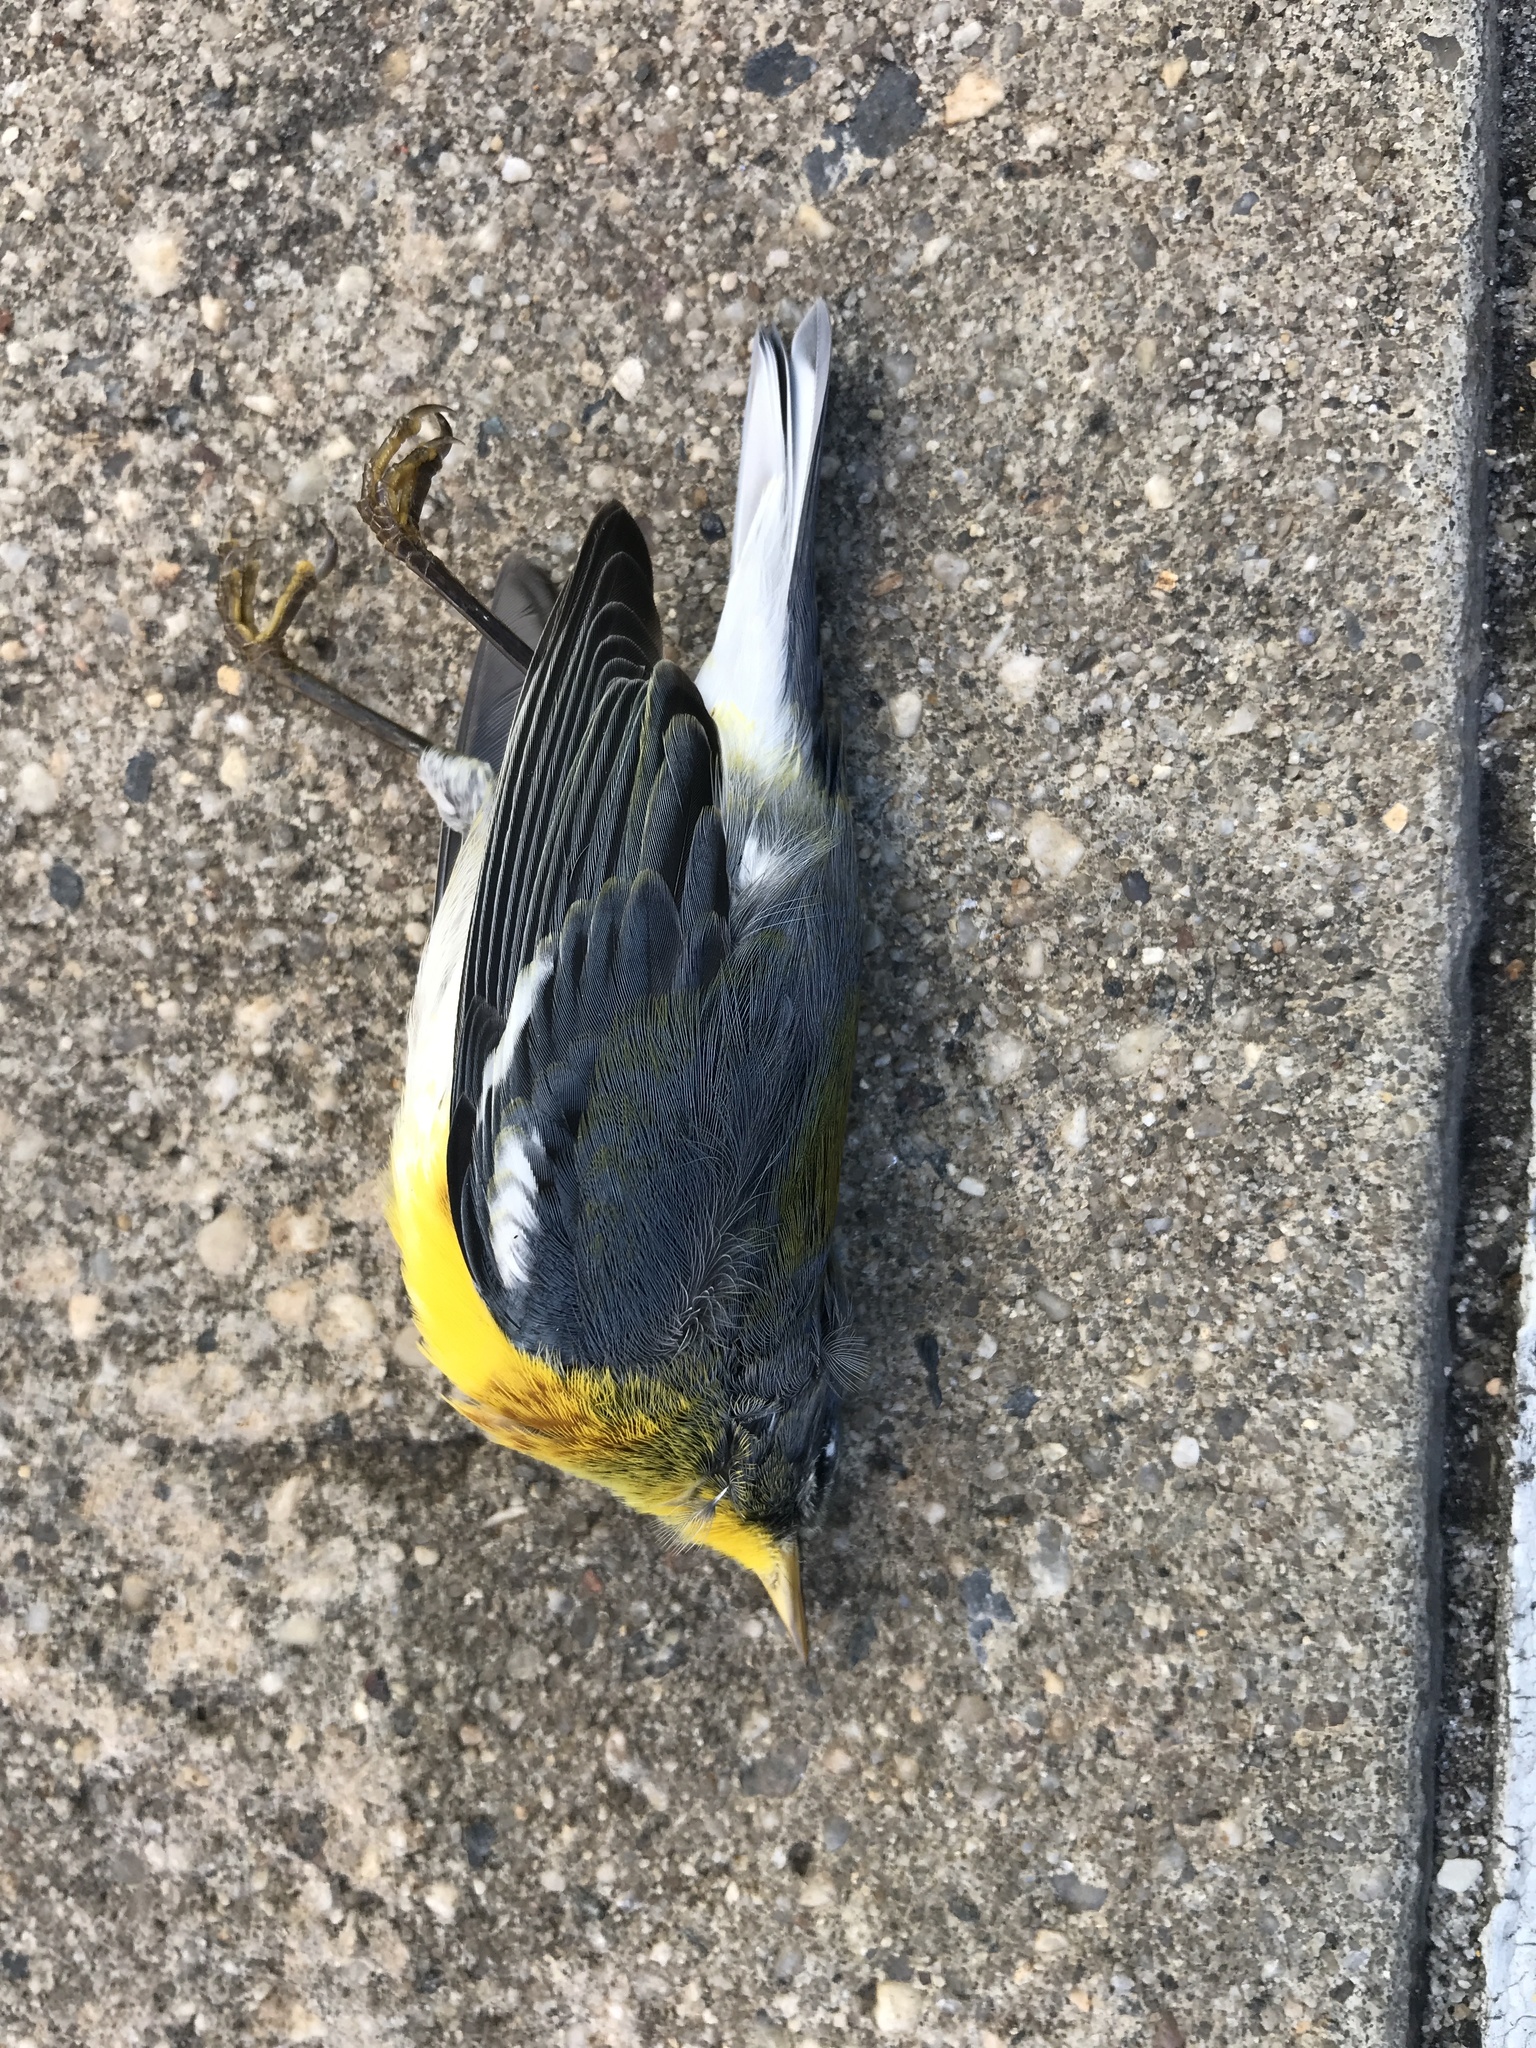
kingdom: Animalia
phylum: Chordata
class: Aves
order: Passeriformes
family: Parulidae
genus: Setophaga
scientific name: Setophaga americana
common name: Northern parula
